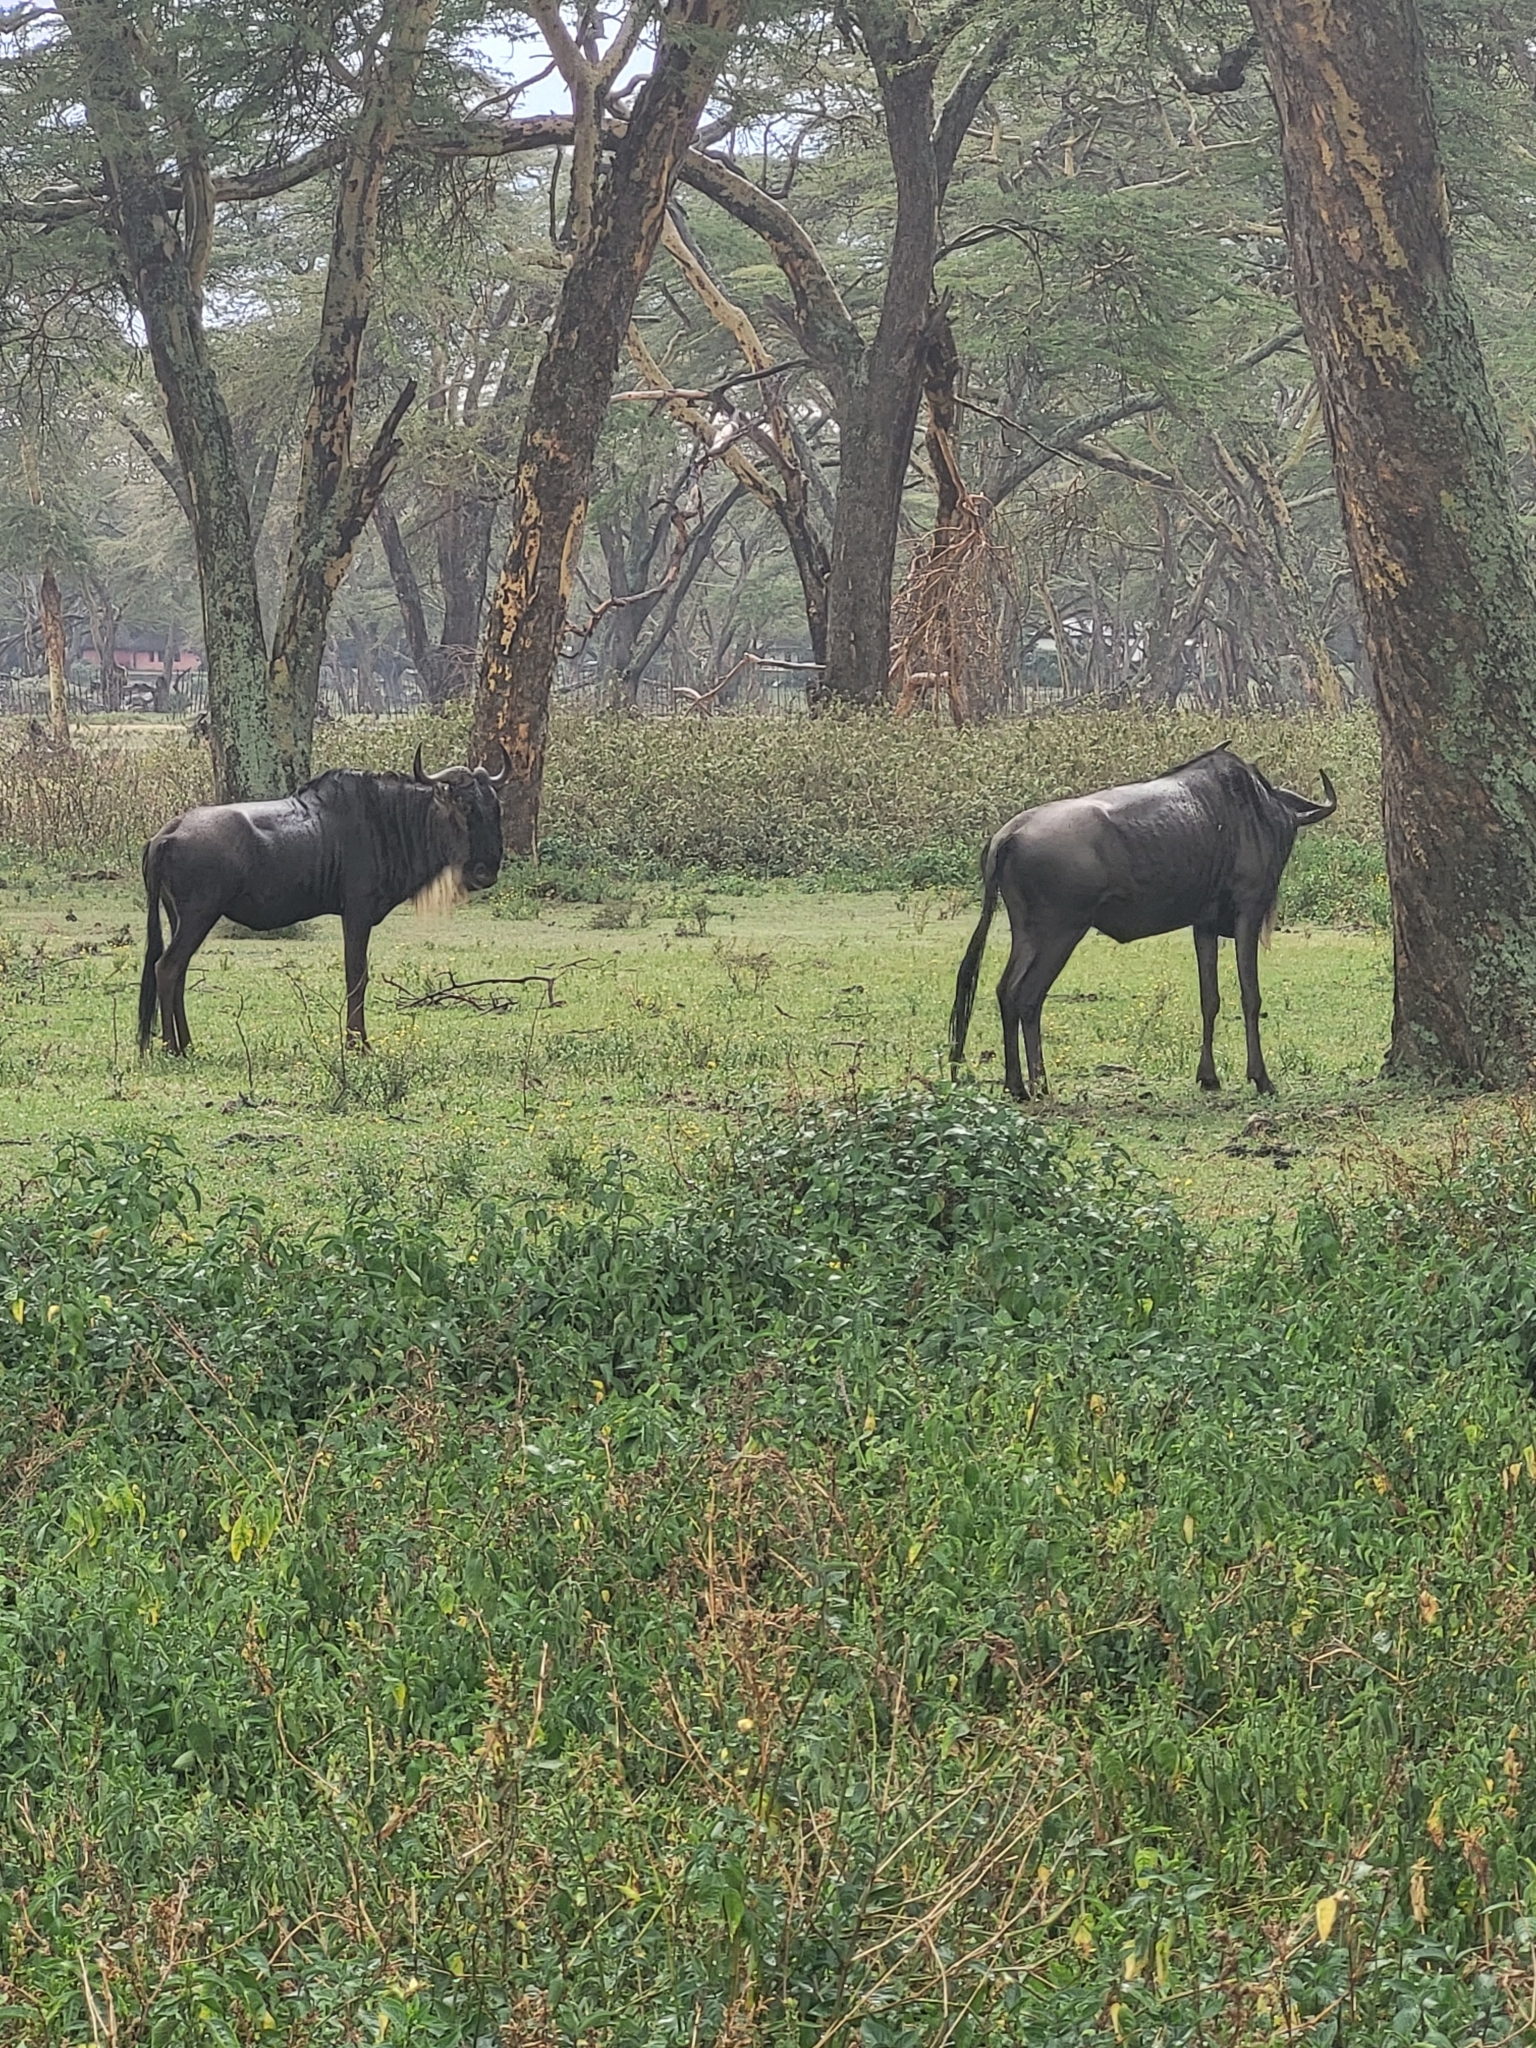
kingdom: Animalia
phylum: Chordata
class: Mammalia
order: Artiodactyla
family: Bovidae
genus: Connochaetes
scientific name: Connochaetes taurinus
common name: Blue wildebeest
